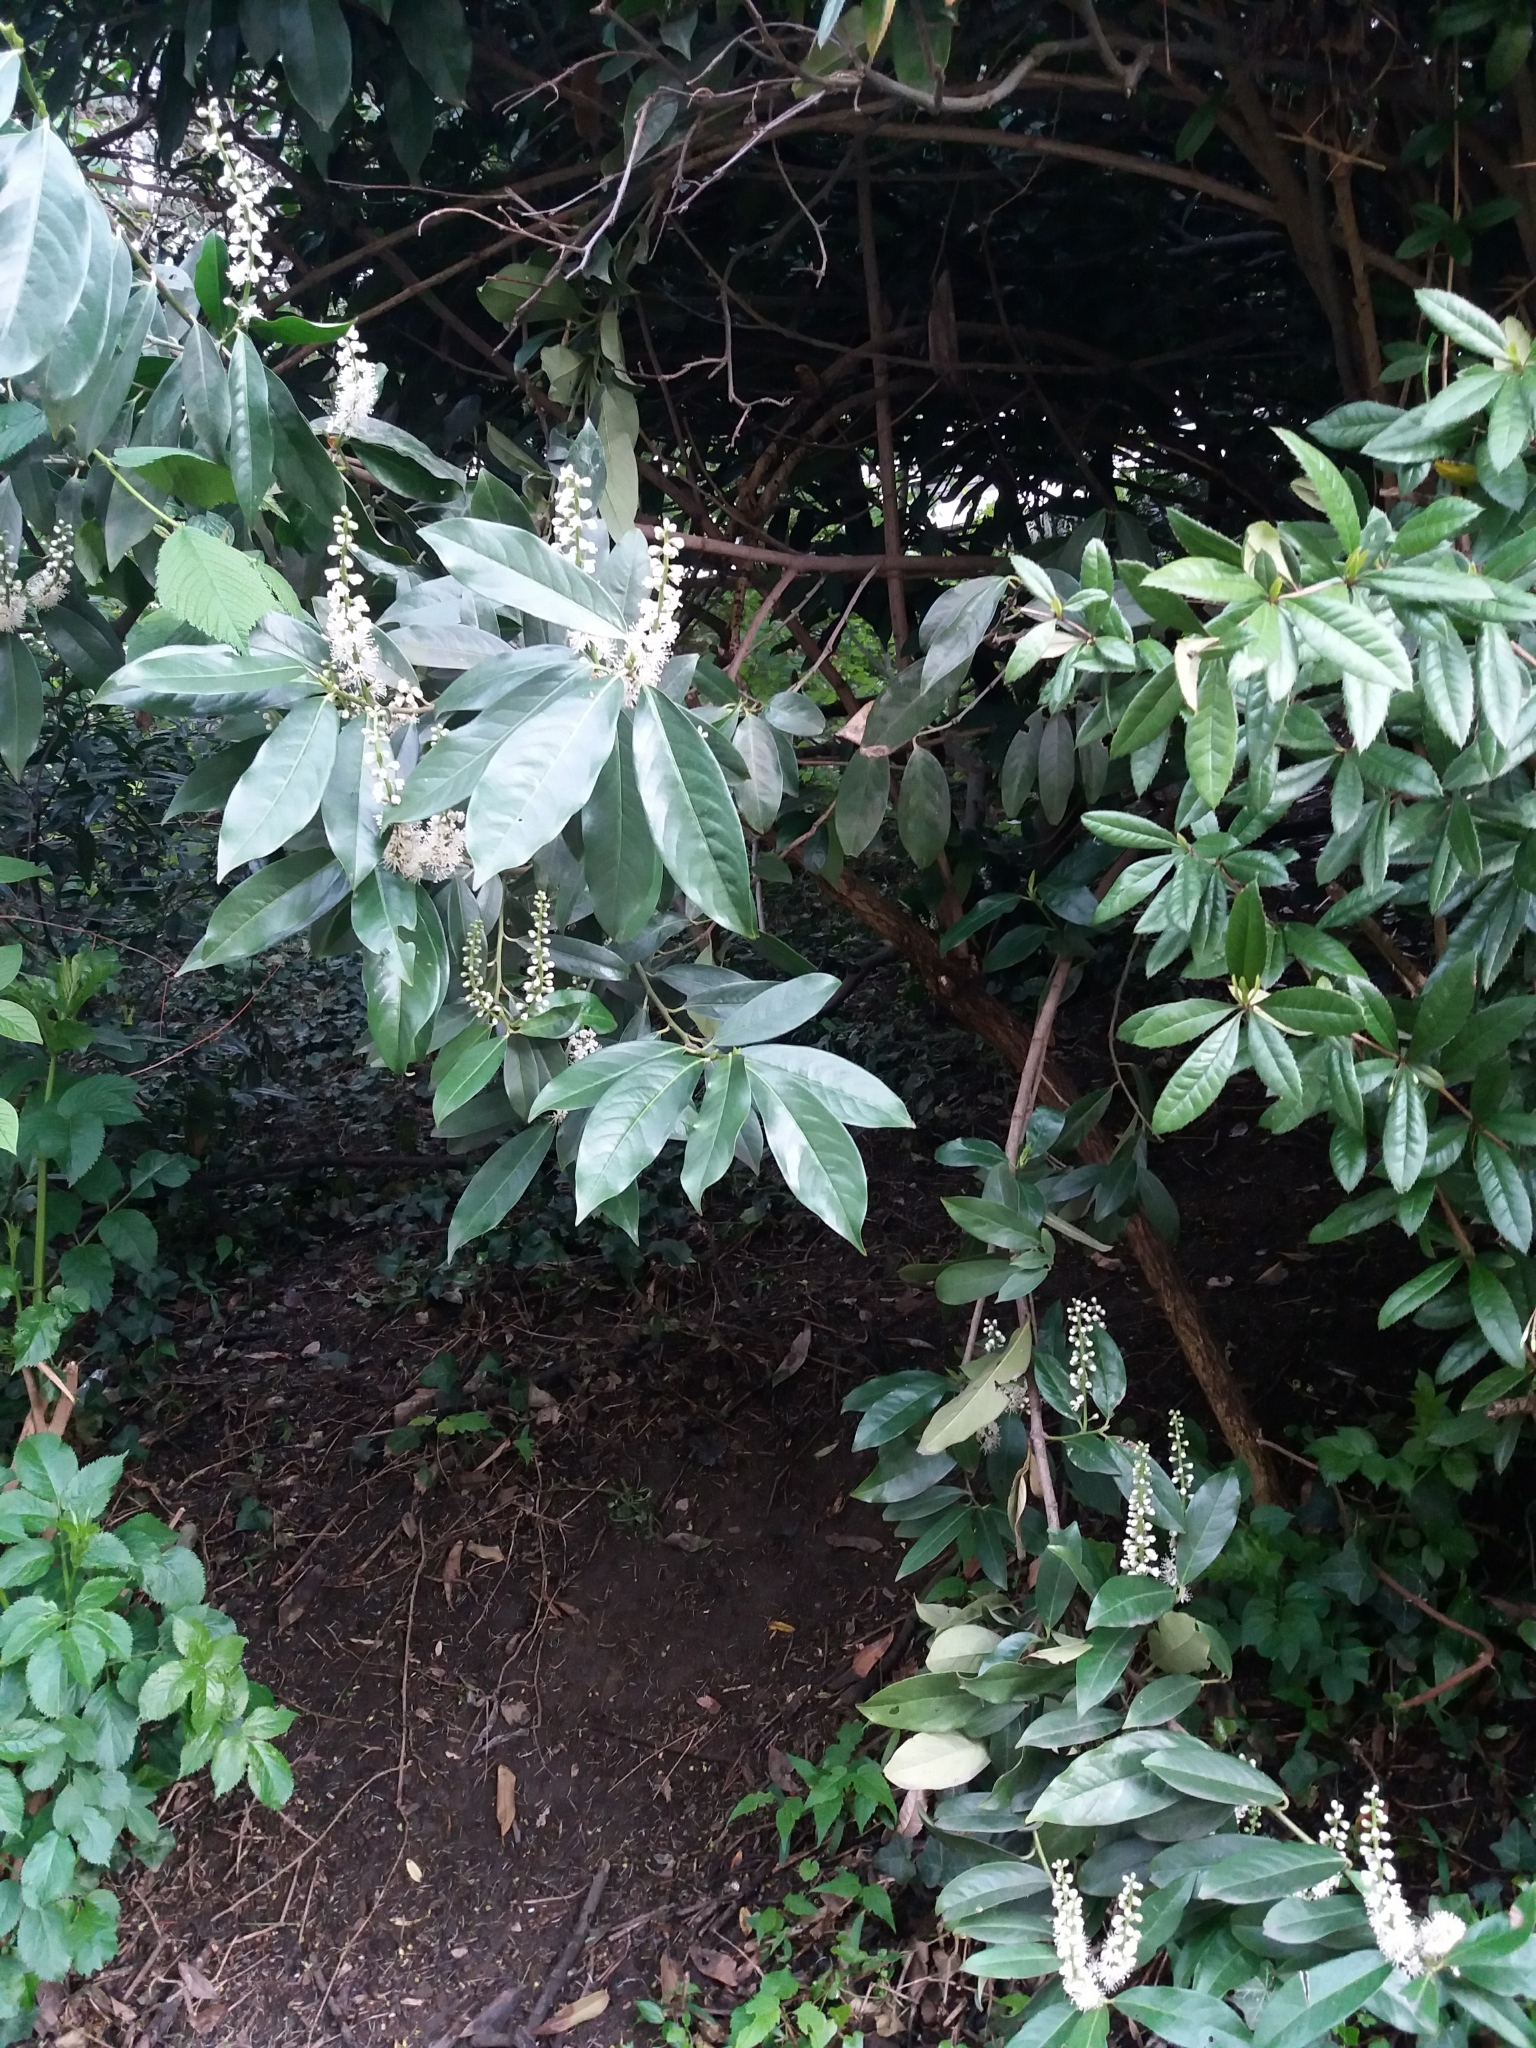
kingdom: Plantae
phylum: Tracheophyta
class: Magnoliopsida
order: Rosales
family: Rosaceae
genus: Prunus
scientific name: Prunus laurocerasus
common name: Cherry laurel
